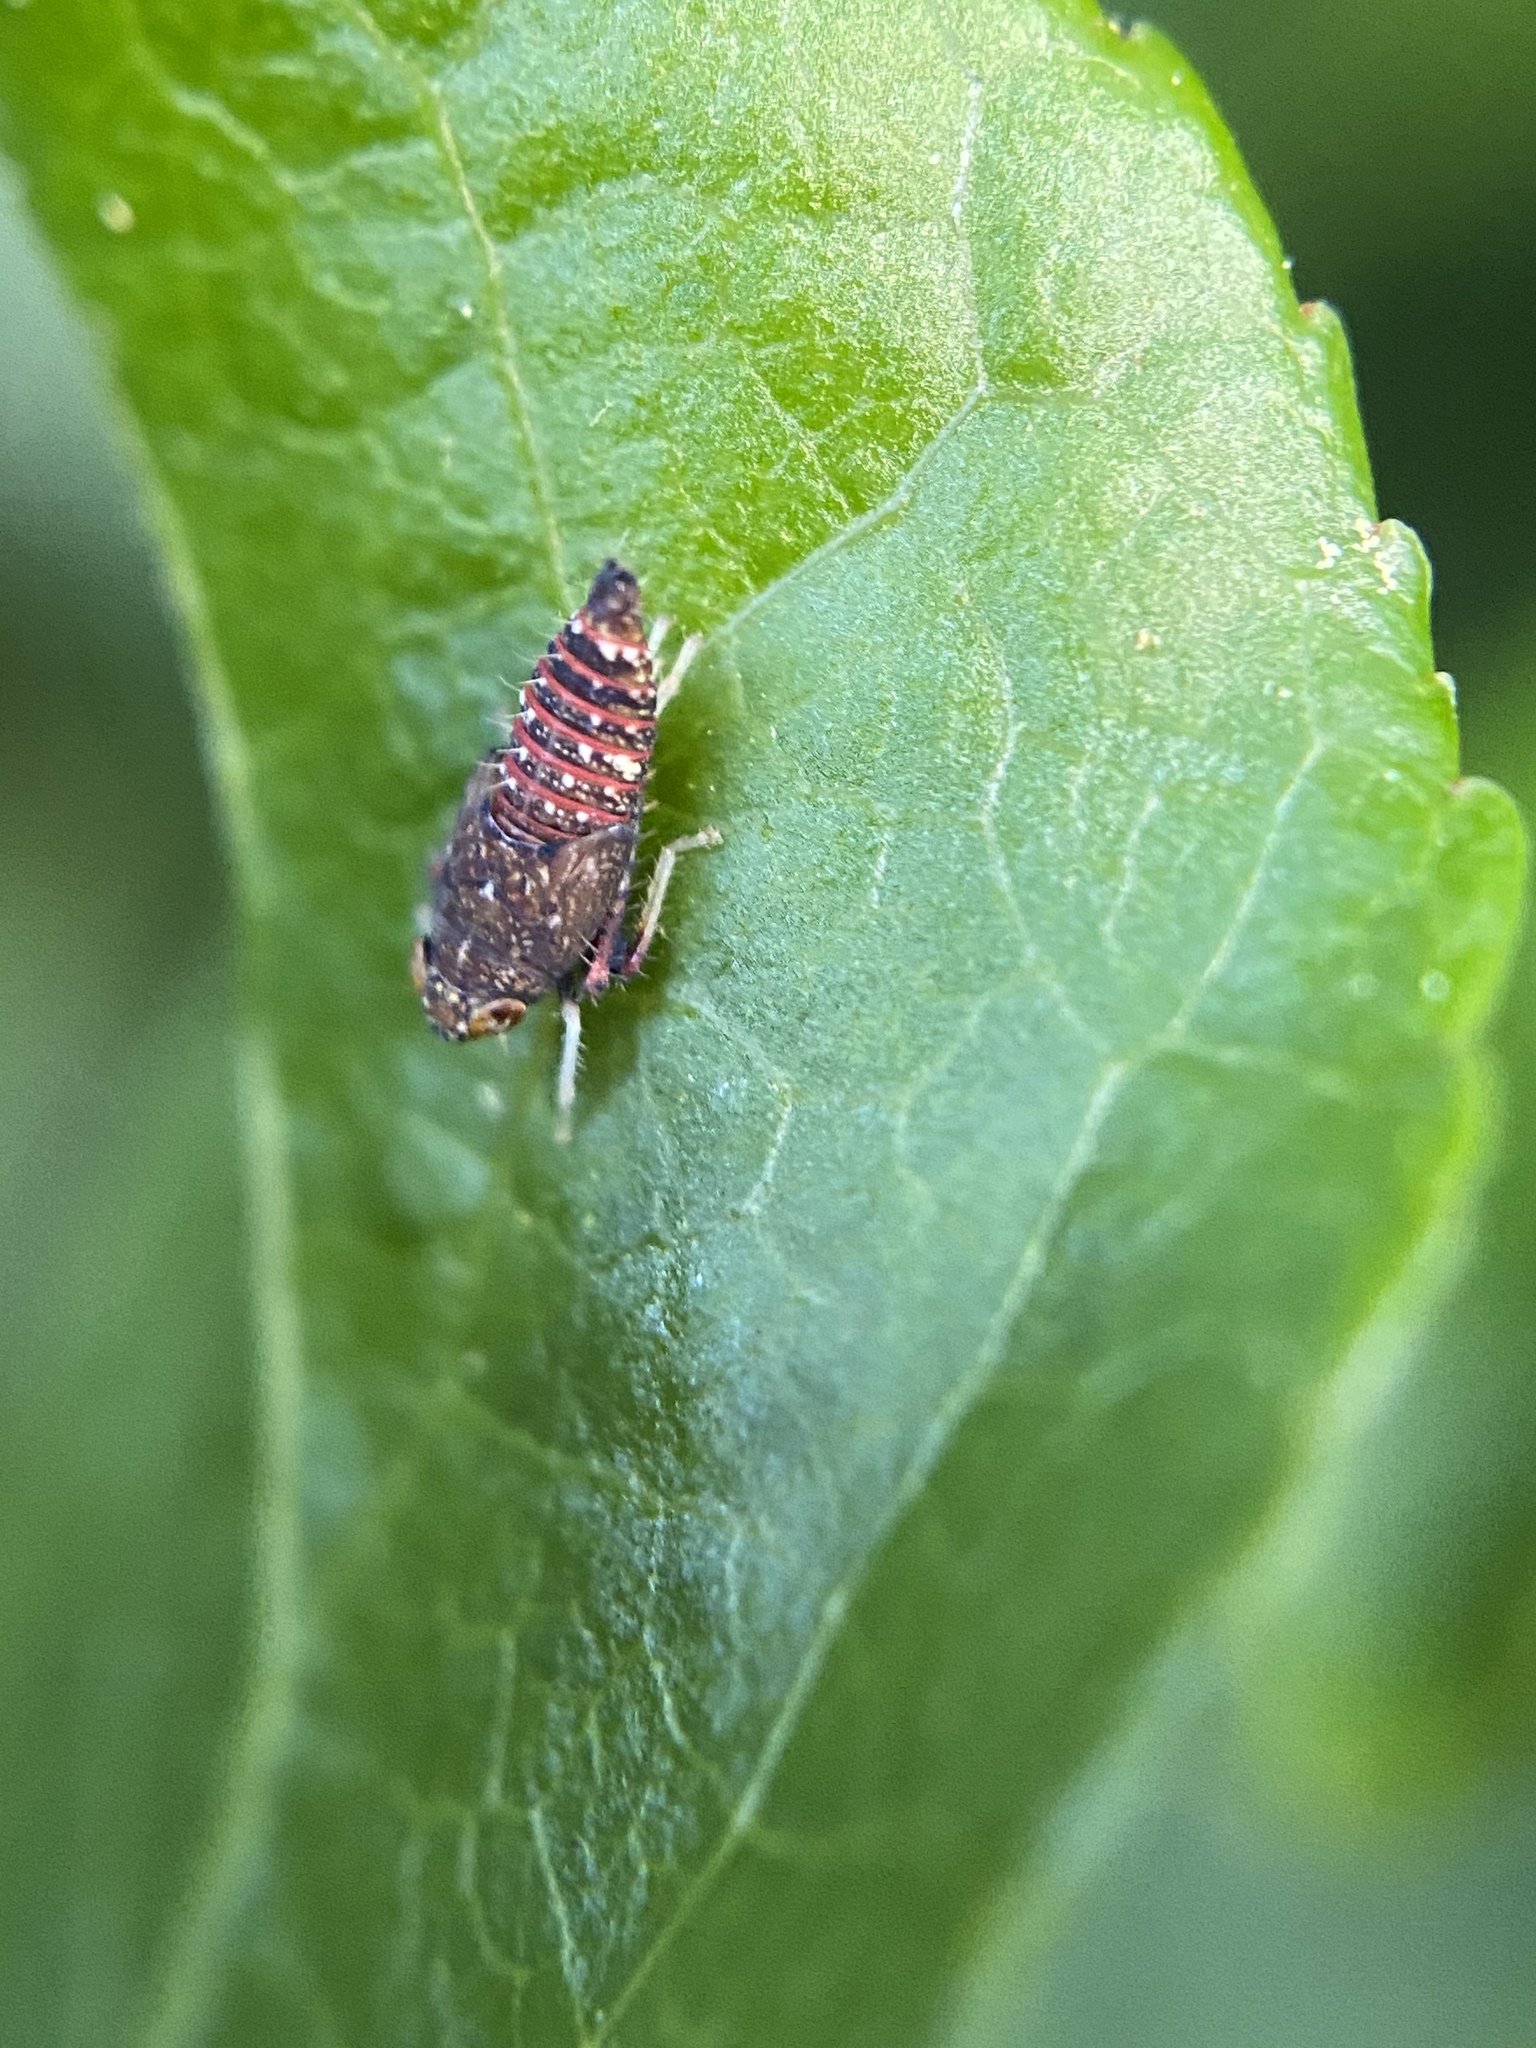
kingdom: Animalia
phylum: Arthropoda
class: Insecta
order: Hemiptera
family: Cicadellidae
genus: Orientus
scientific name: Orientus ishidae
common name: Japanese leafhopper
